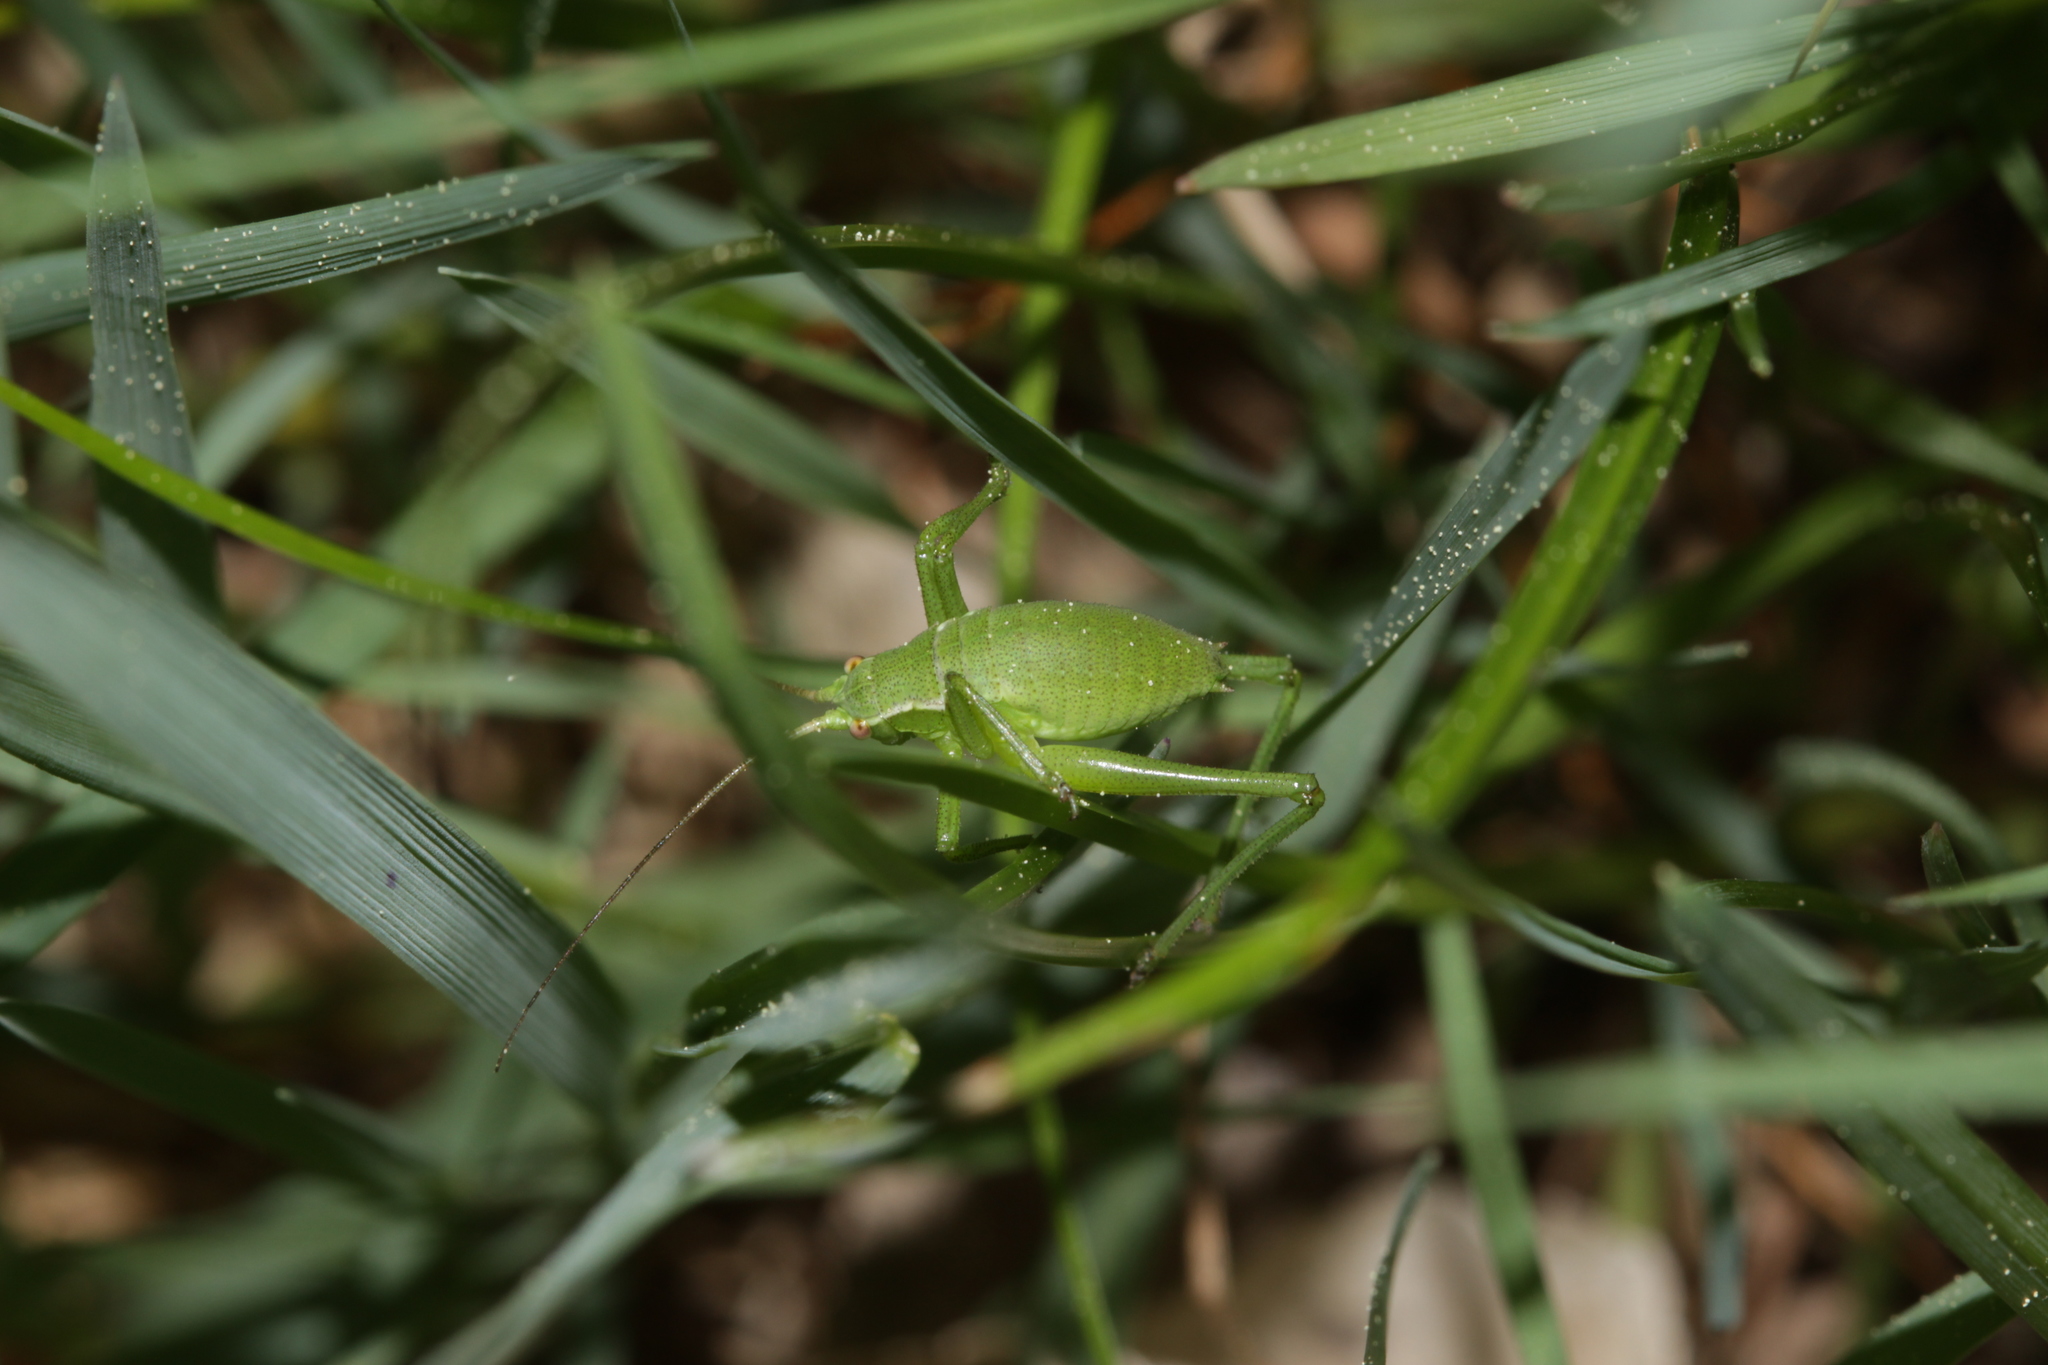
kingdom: Animalia
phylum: Arthropoda
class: Insecta
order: Orthoptera
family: Tettigoniidae
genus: Isophya
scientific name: Isophya camptoxypha
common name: Curve-tailed plump bush-cricket
